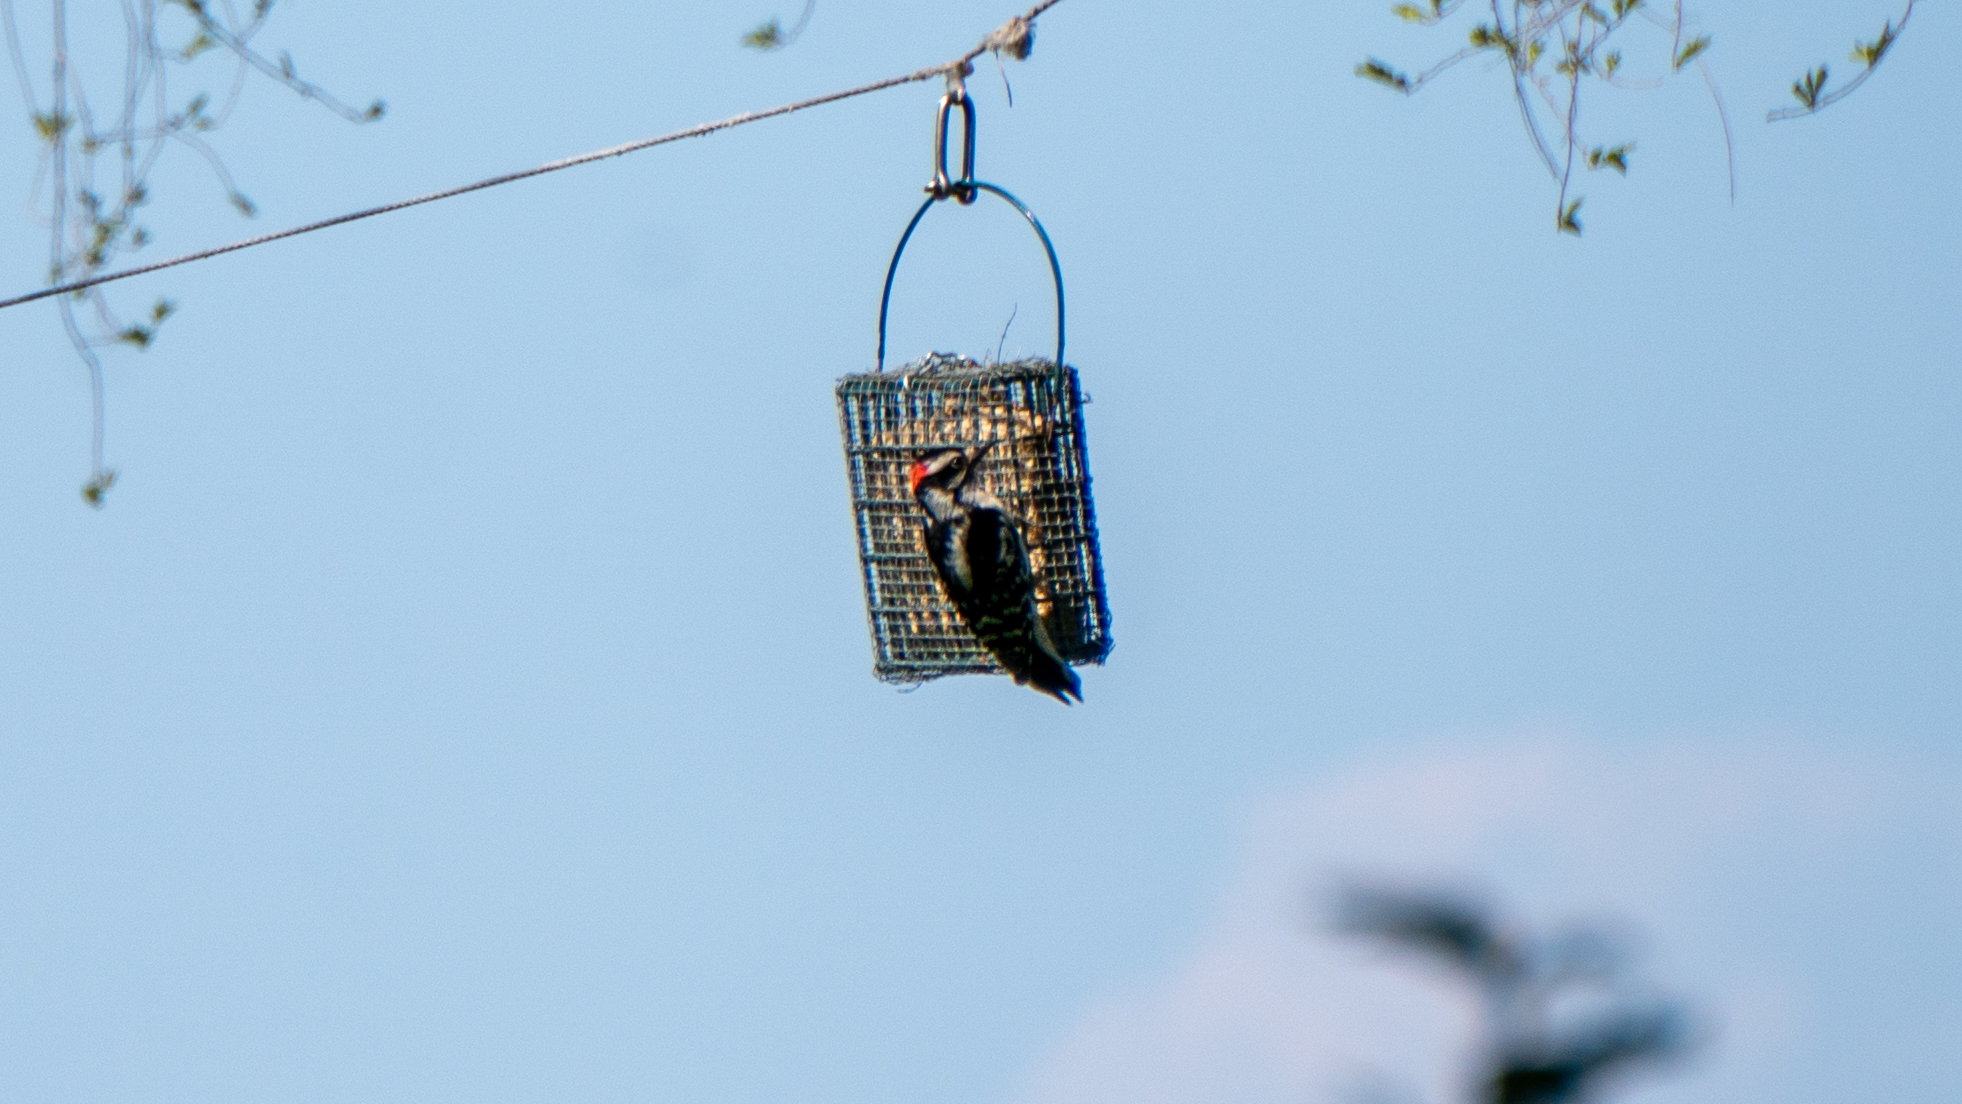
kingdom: Animalia
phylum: Chordata
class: Aves
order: Piciformes
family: Picidae
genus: Dryobates
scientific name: Dryobates pubescens
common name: Downy woodpecker
